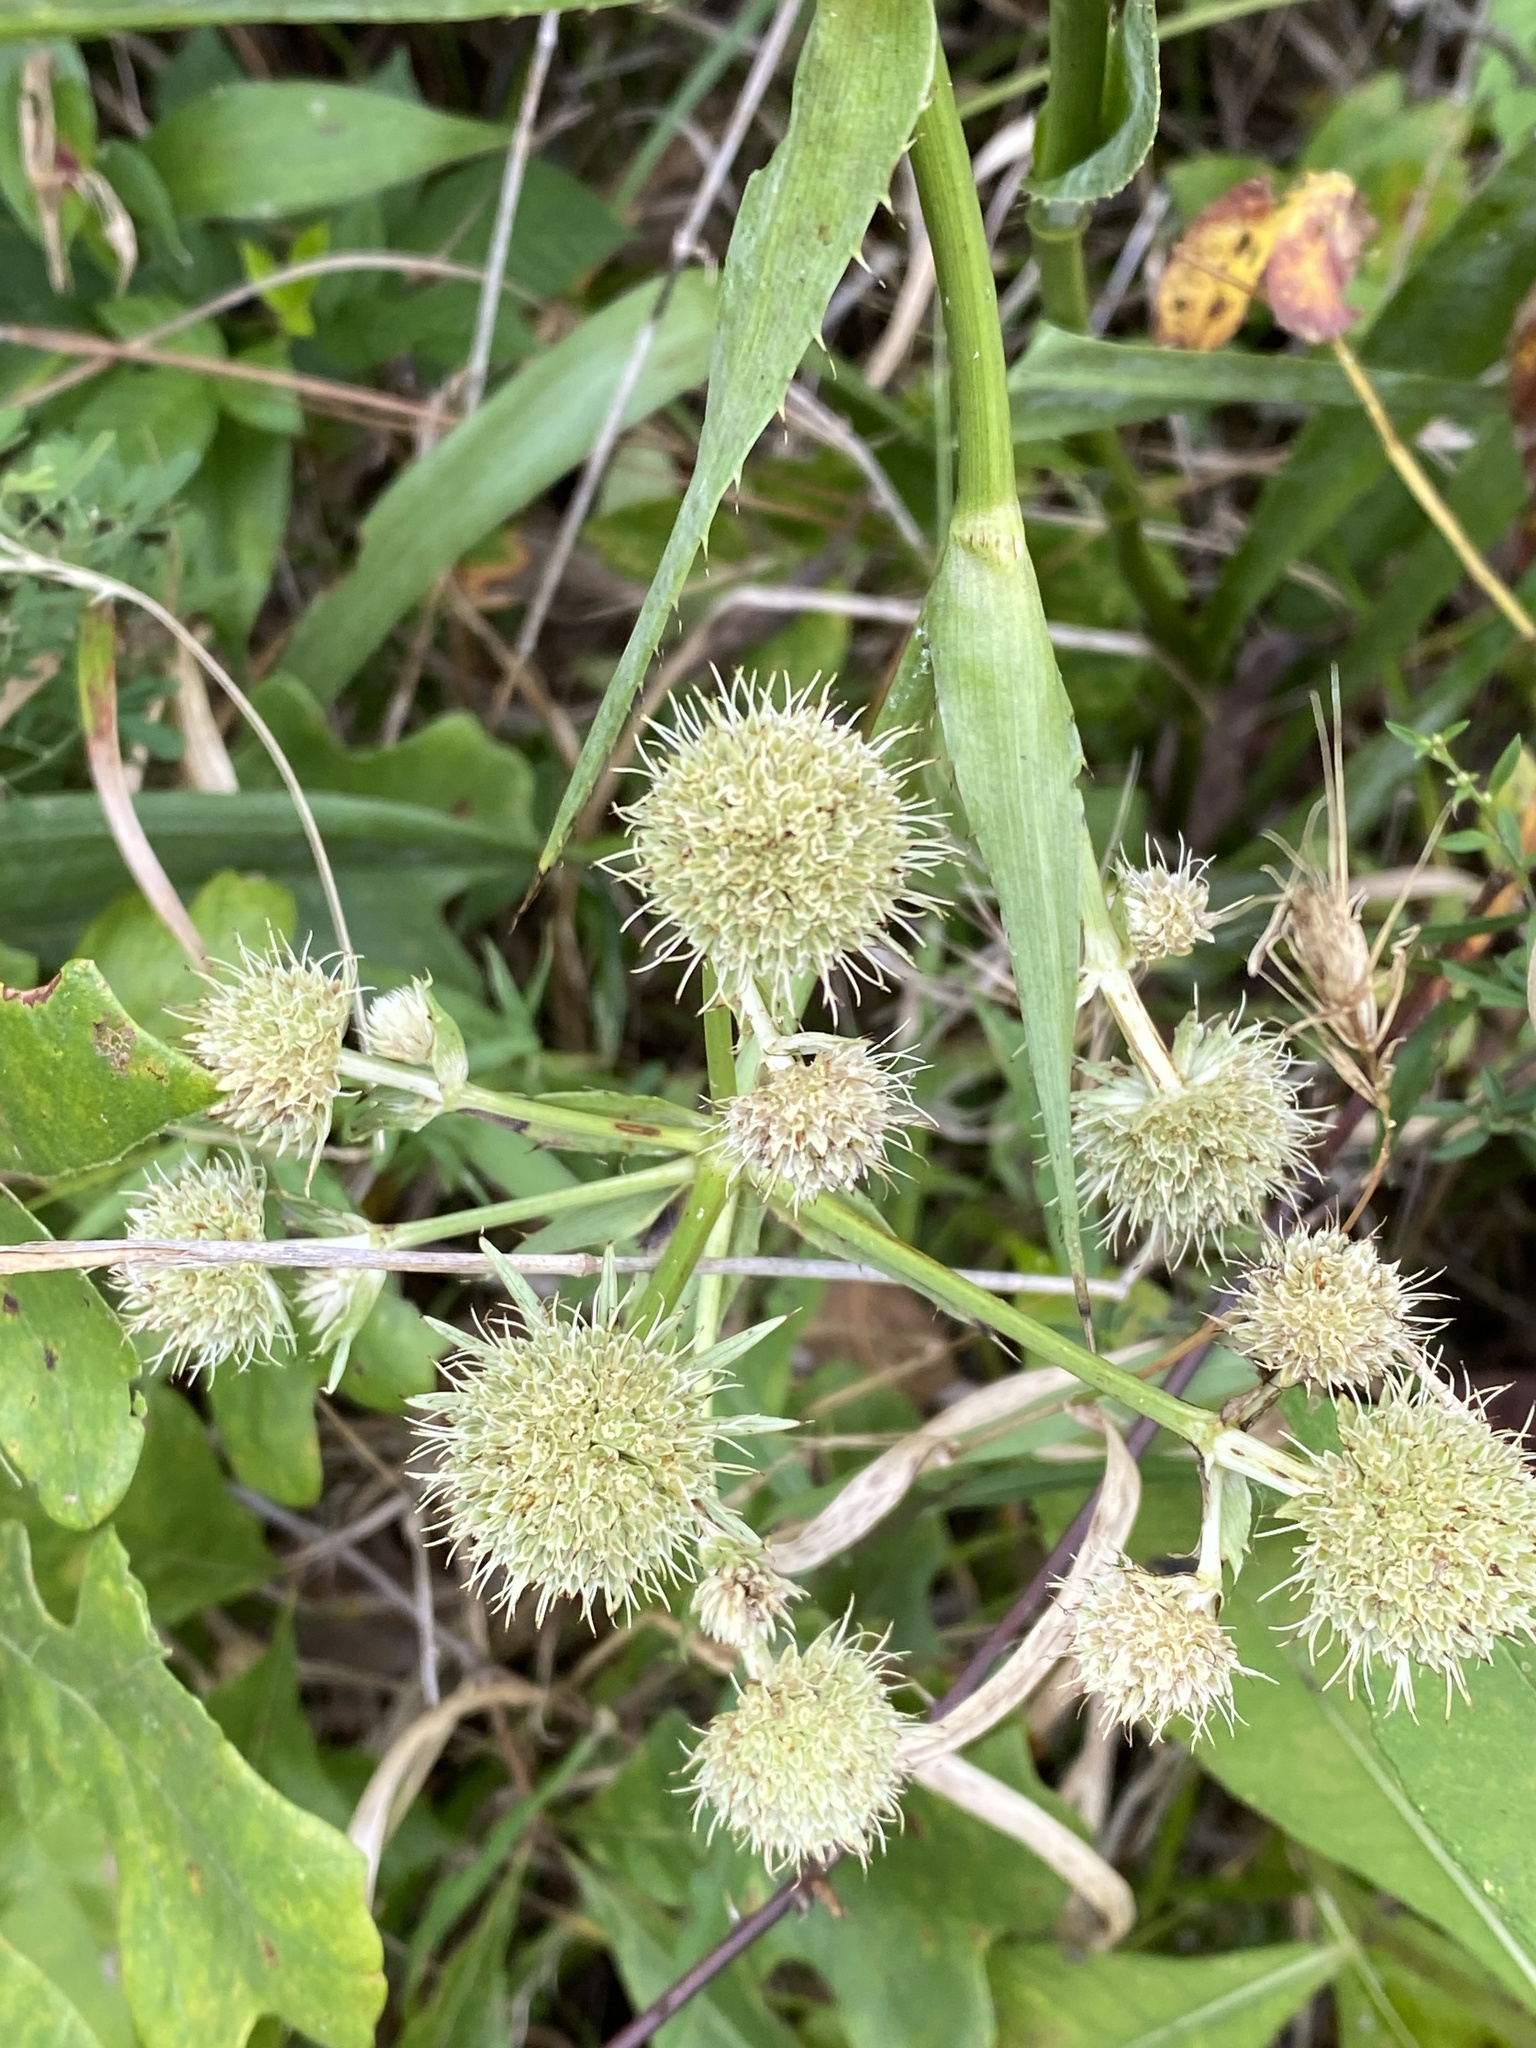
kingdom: Plantae
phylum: Tracheophyta
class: Magnoliopsida
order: Apiales
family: Apiaceae
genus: Eryngium
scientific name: Eryngium yuccifolium
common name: Button eryngo
